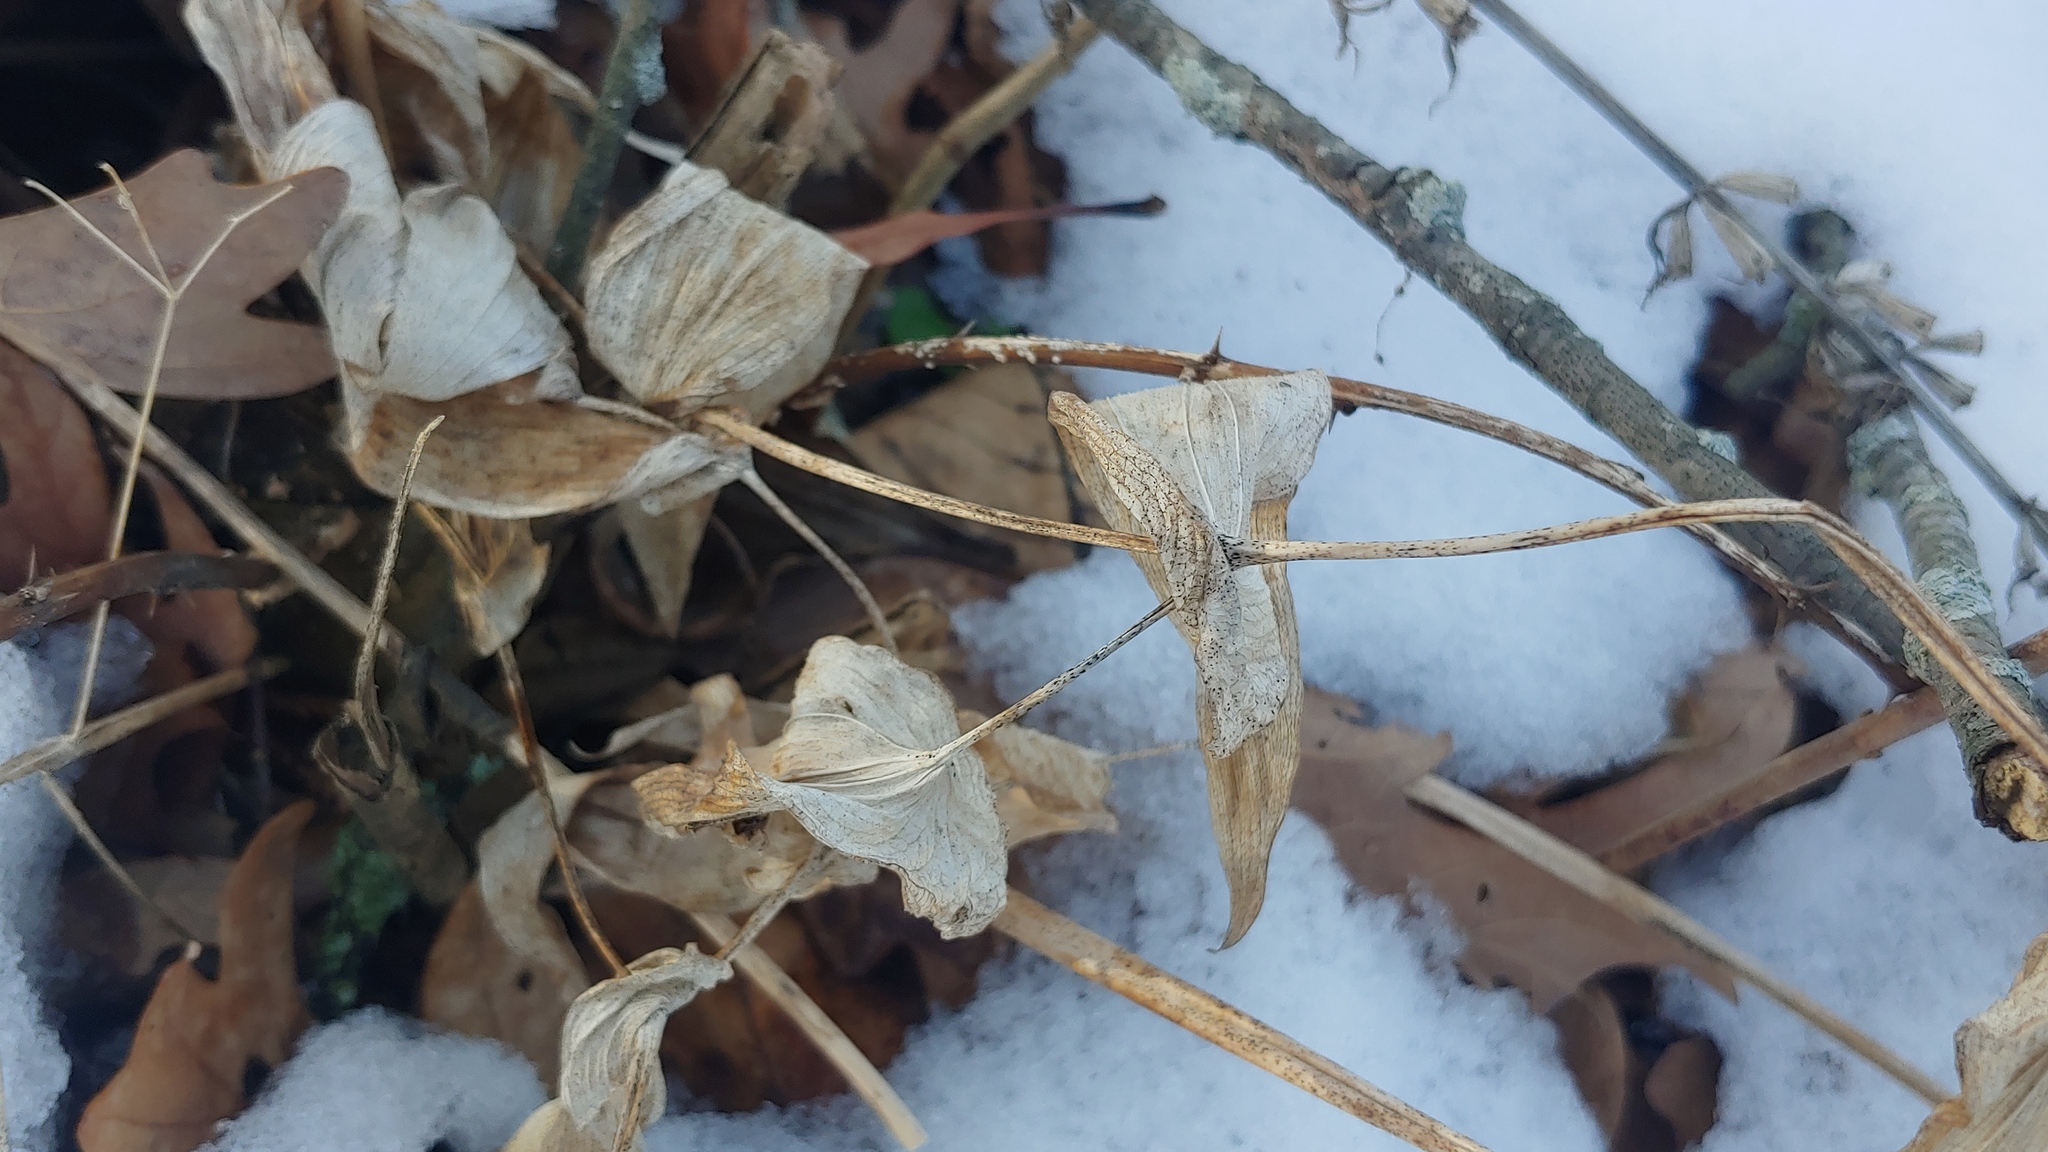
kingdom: Plantae
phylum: Tracheophyta
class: Liliopsida
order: Liliales
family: Colchicaceae
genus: Uvularia
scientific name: Uvularia grandiflora
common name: Bellwort
